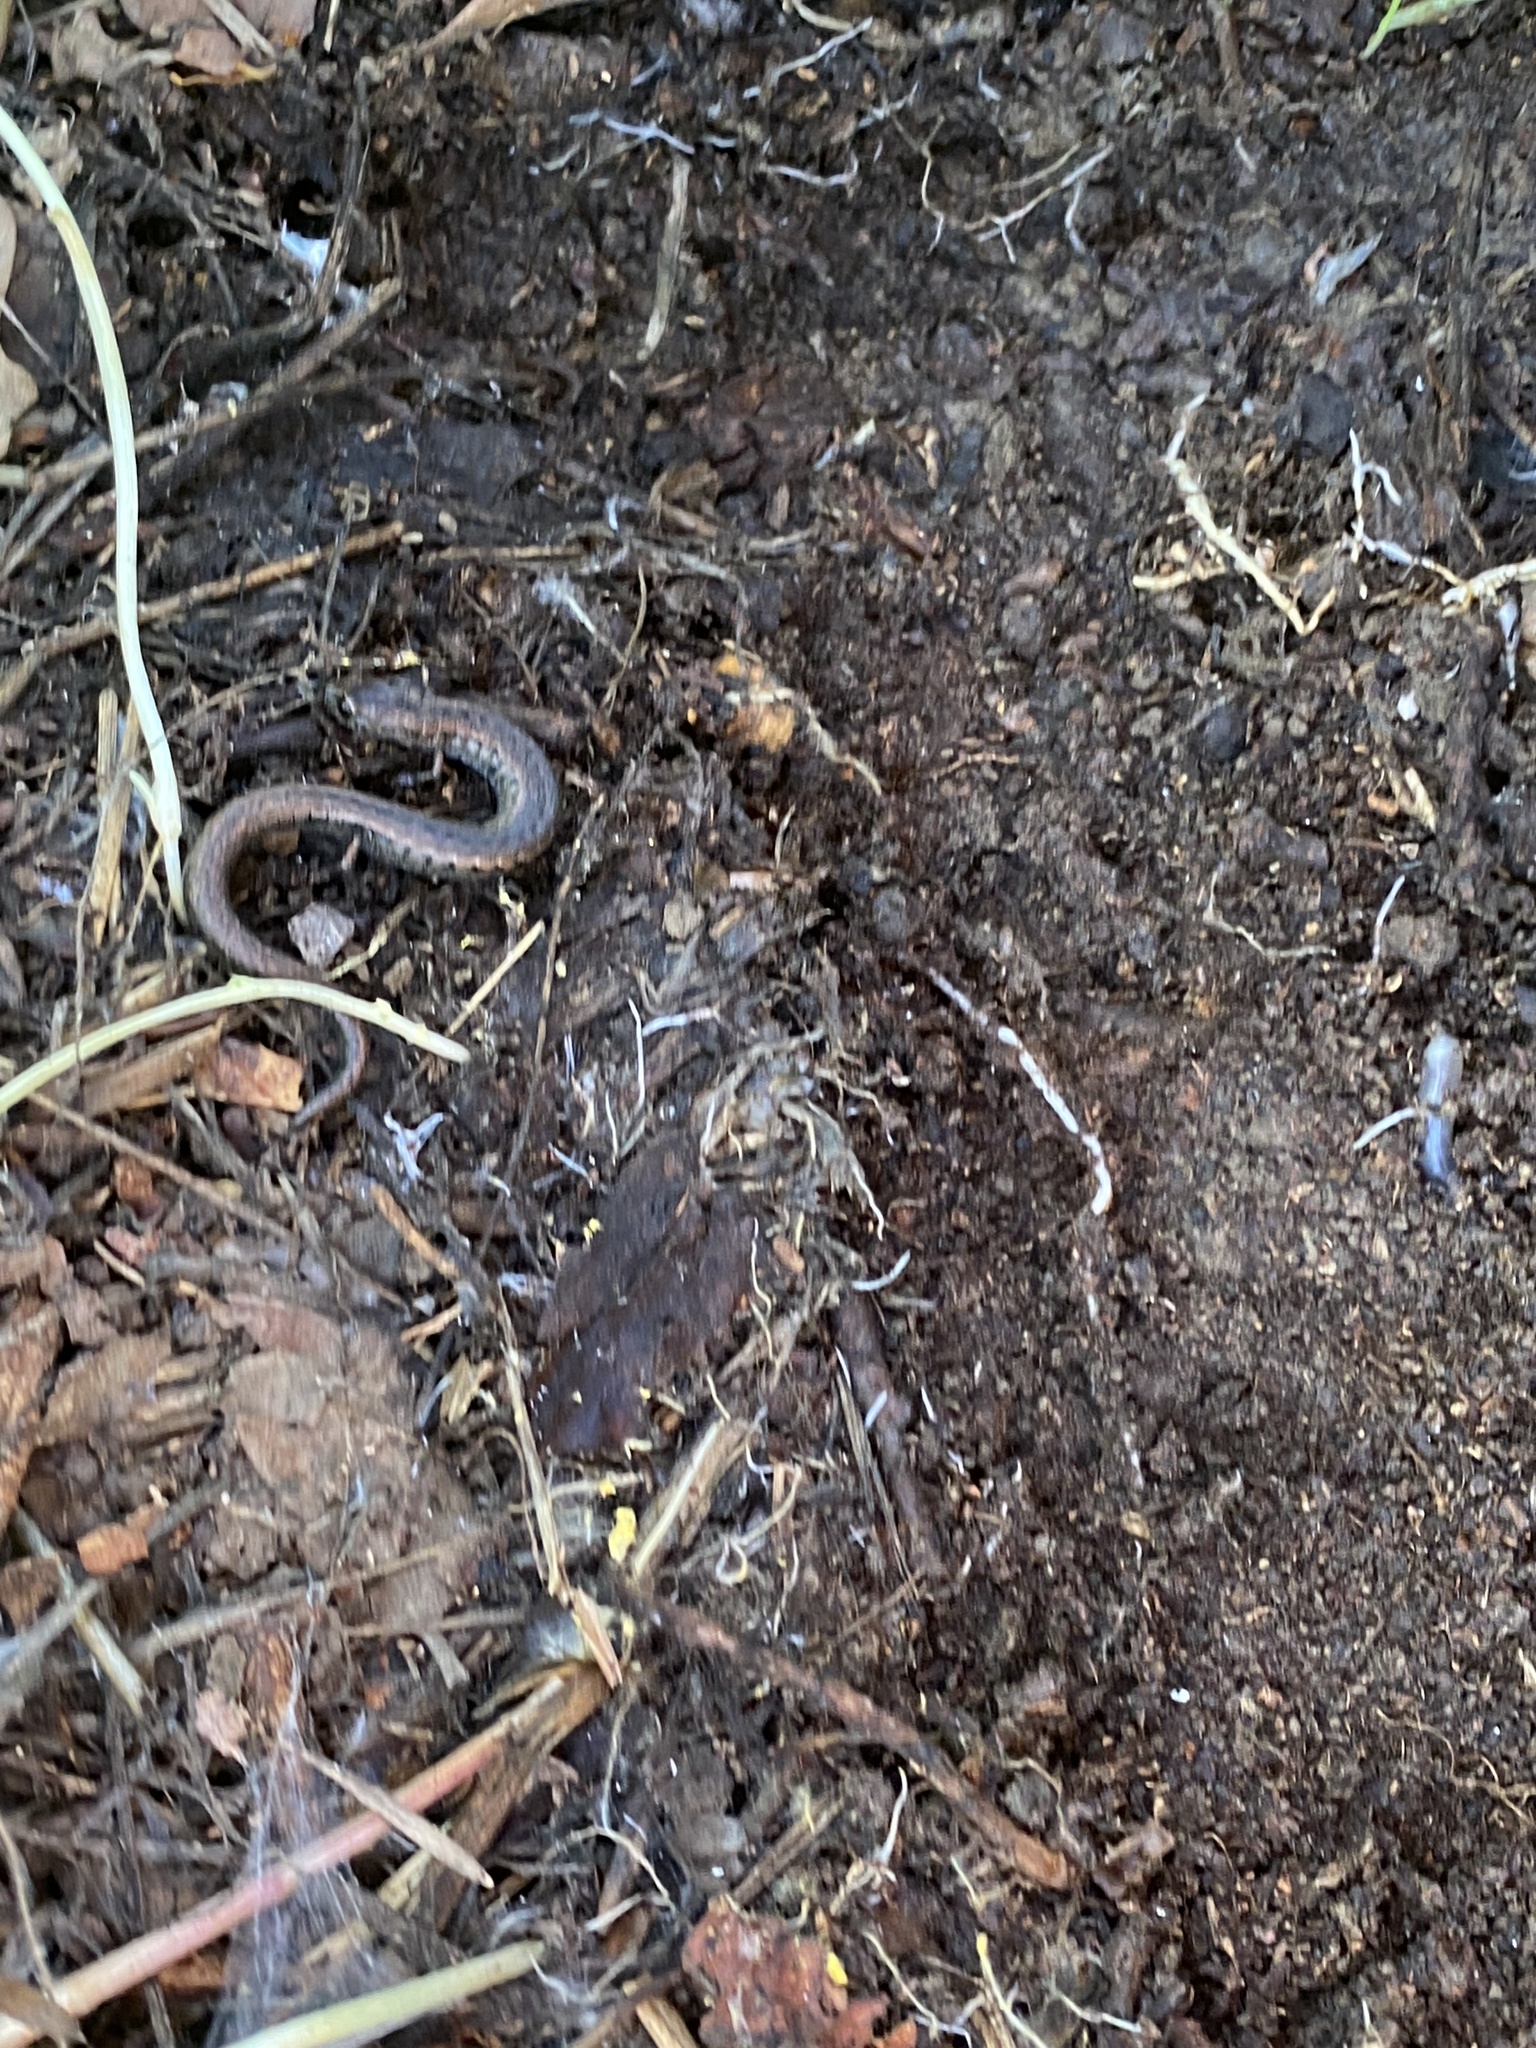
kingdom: Animalia
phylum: Chordata
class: Amphibia
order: Caudata
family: Plethodontidae
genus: Batrachoseps
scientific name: Batrachoseps attenuatus
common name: California slender salamander
